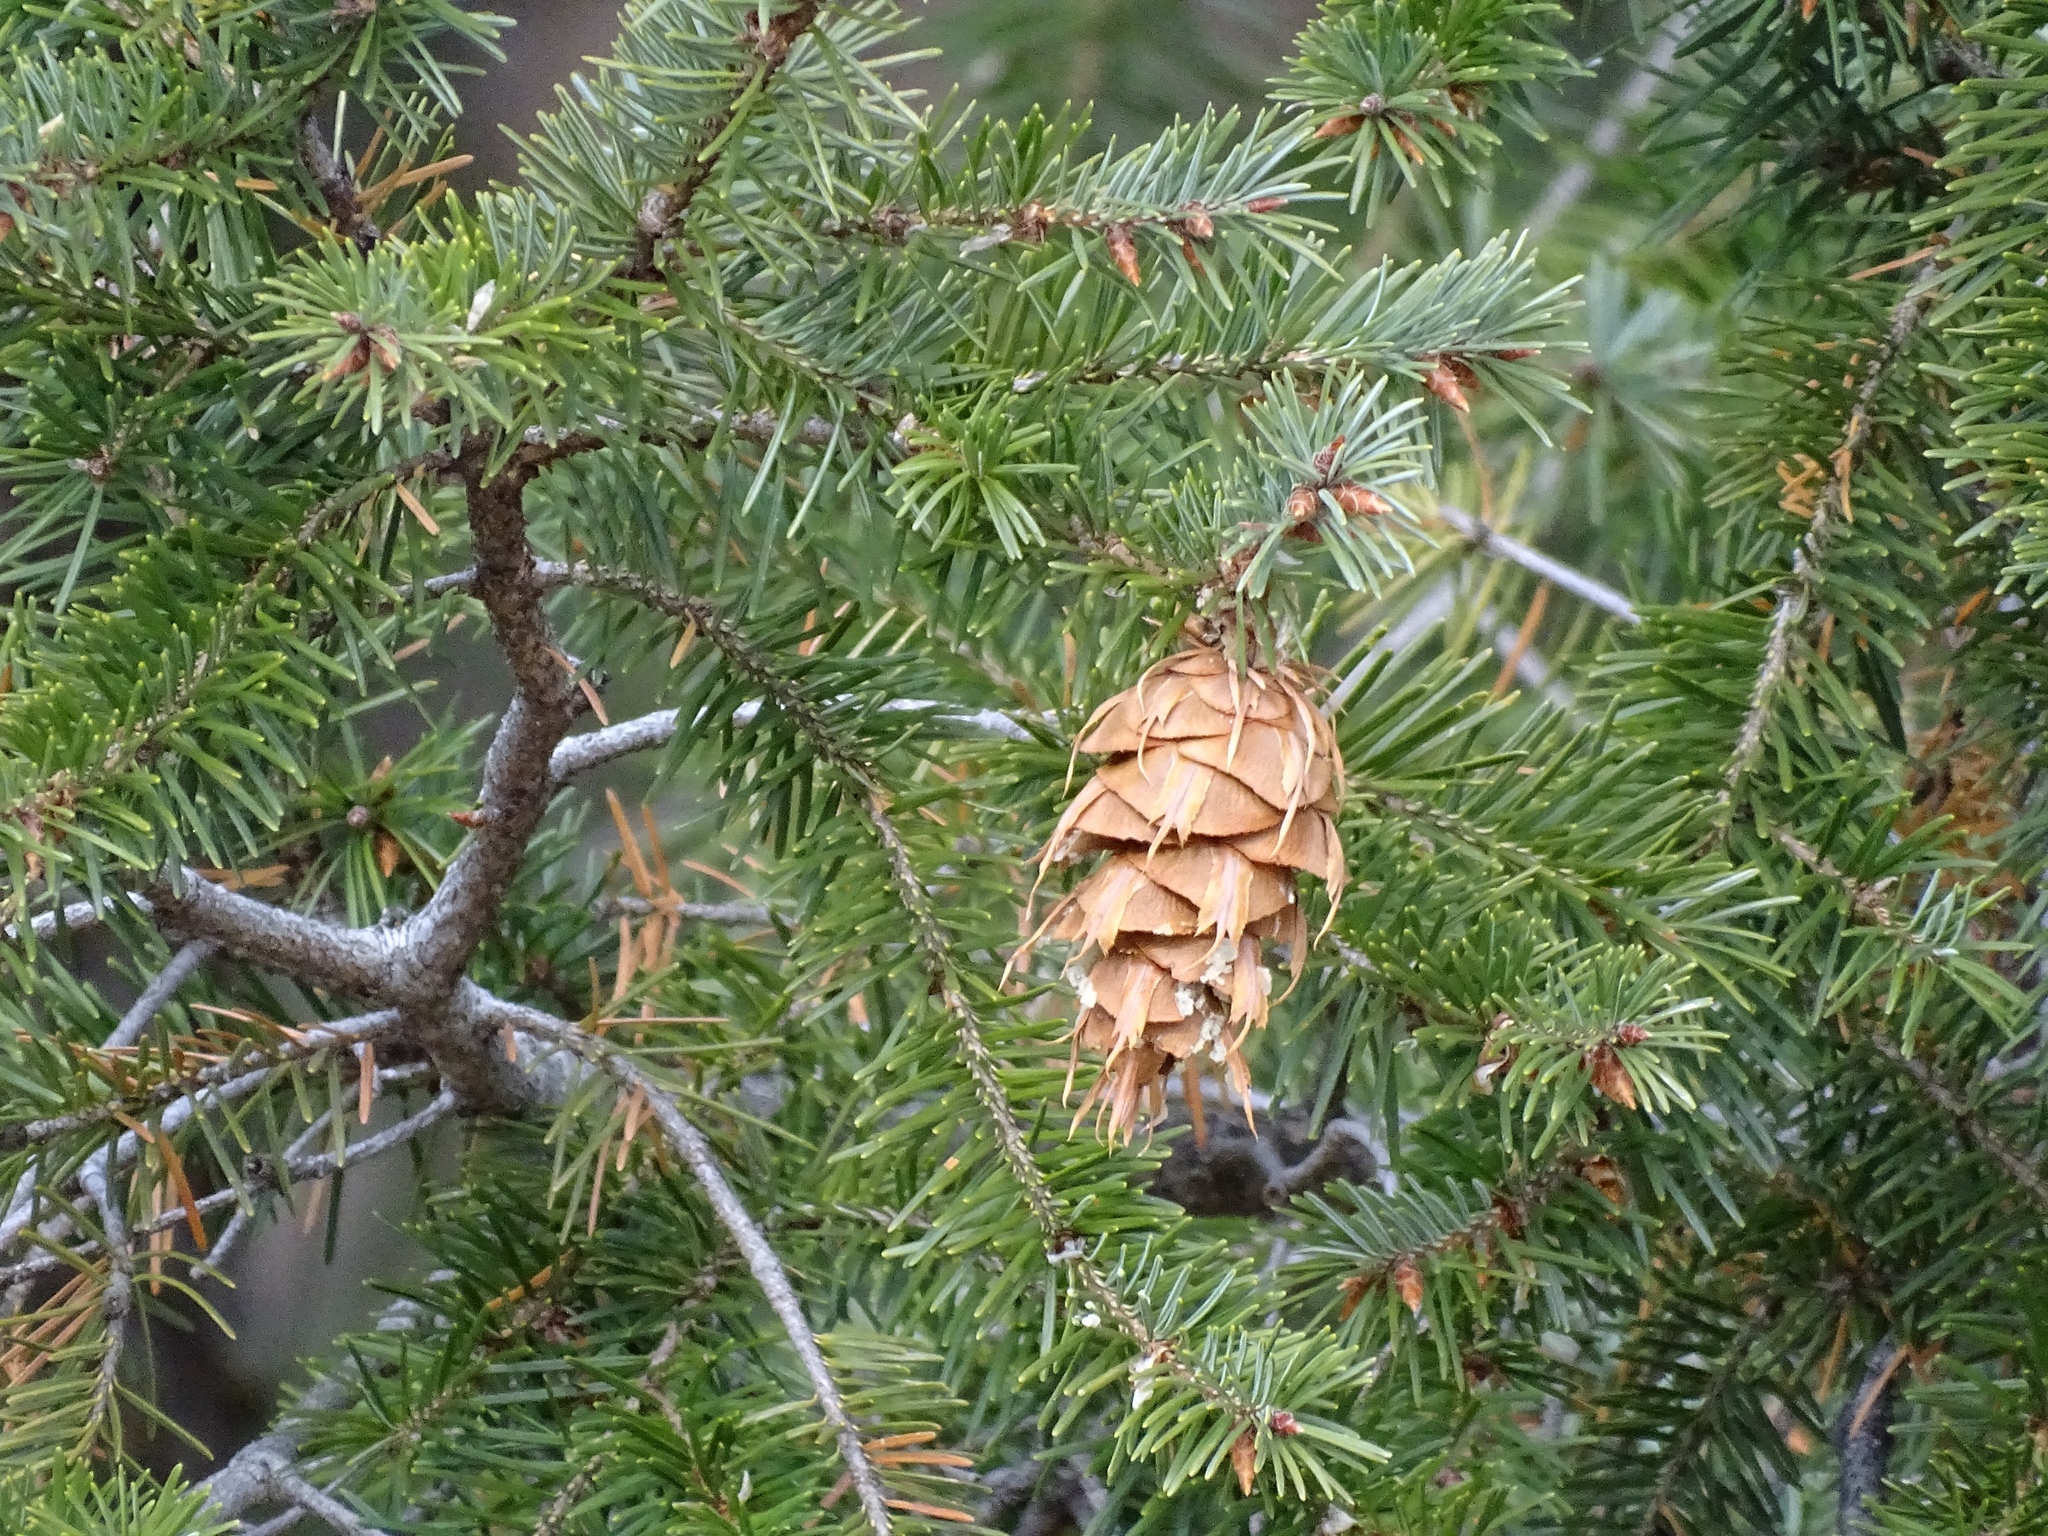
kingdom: Plantae
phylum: Tracheophyta
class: Pinopsida
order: Pinales
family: Pinaceae
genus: Pseudotsuga
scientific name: Pseudotsuga menziesii
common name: Douglas fir
